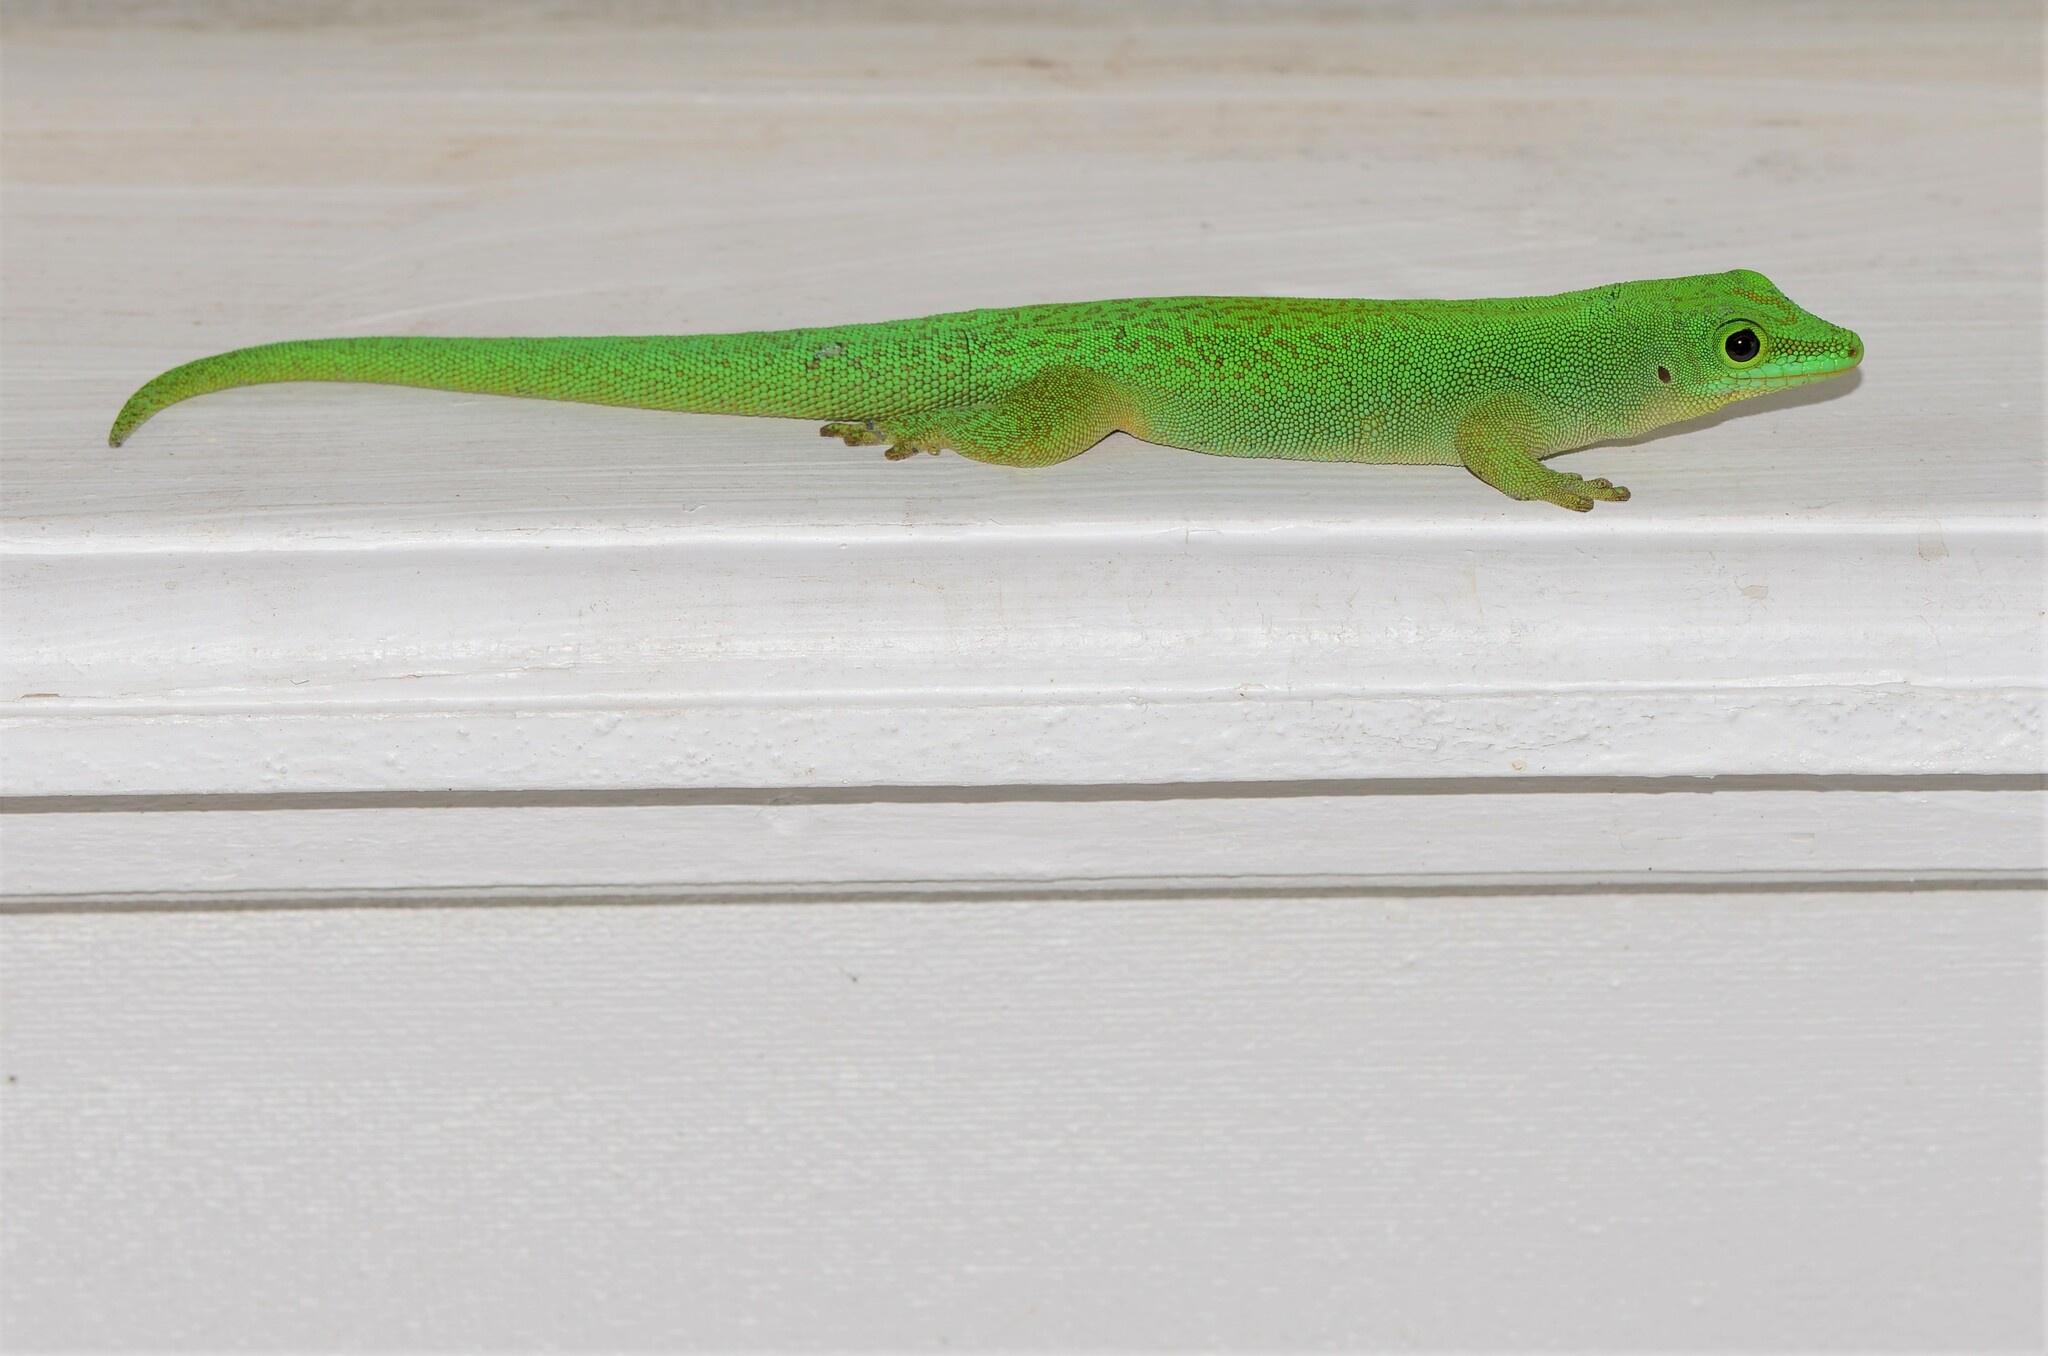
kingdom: Animalia
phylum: Chordata
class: Squamata
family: Gekkonidae
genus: Phelsuma
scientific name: Phelsuma sundbergi
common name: Seychelles giant day gecko
